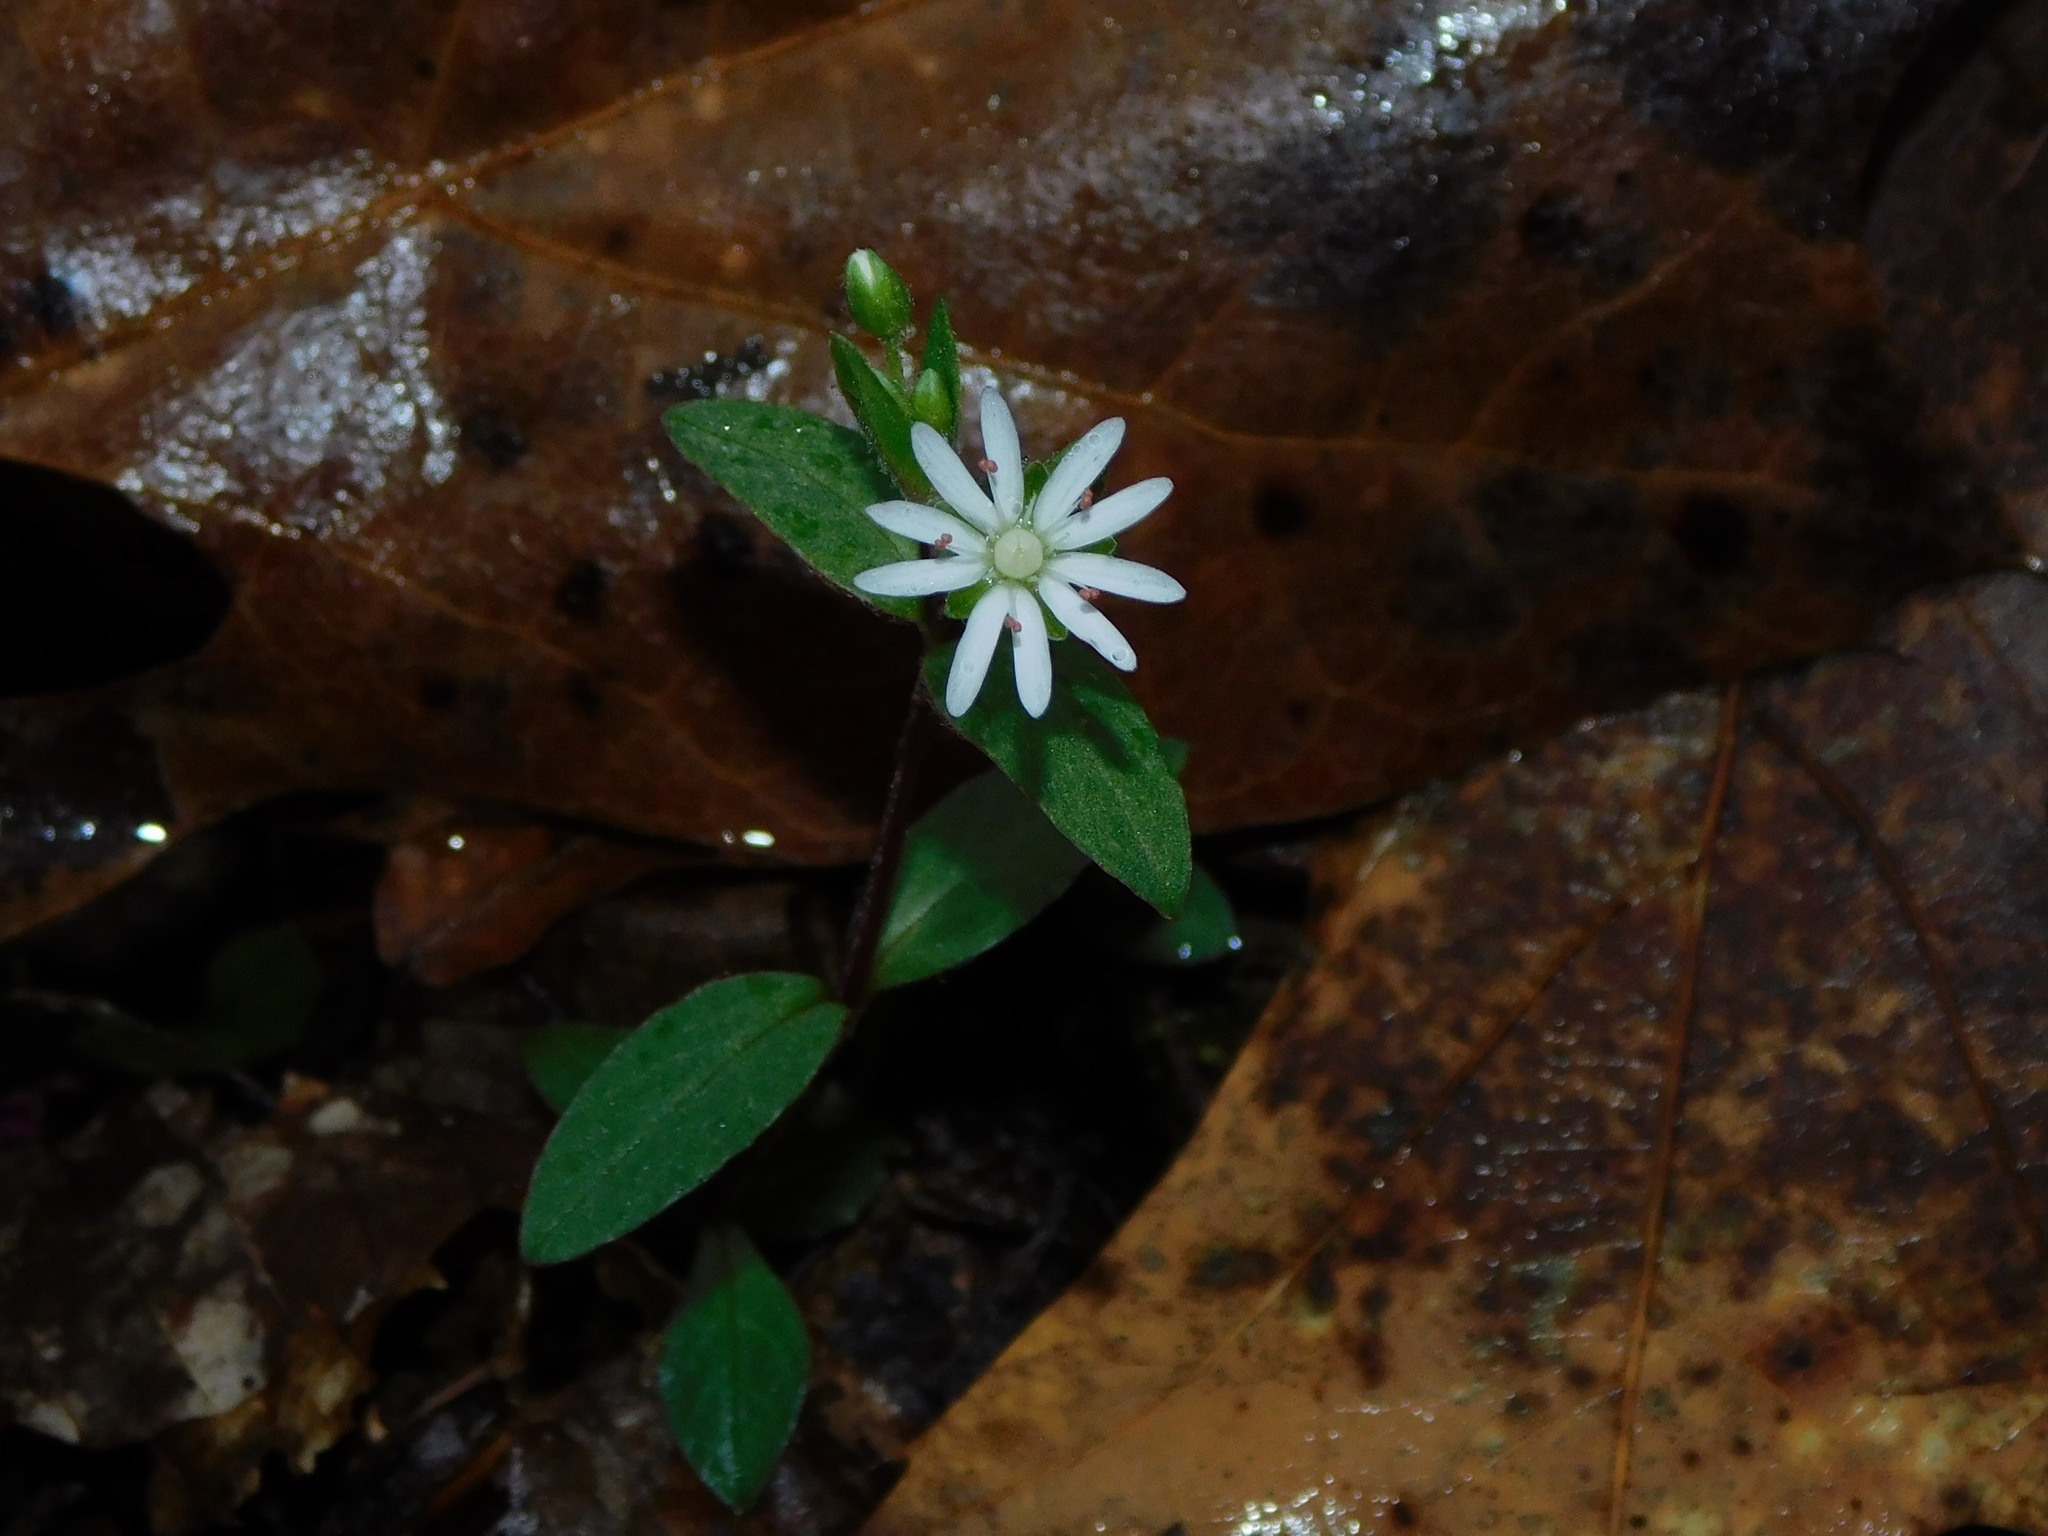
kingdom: Plantae
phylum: Tracheophyta
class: Magnoliopsida
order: Caryophyllales
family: Caryophyllaceae
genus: Stellaria
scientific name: Stellaria pubera
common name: Star chickweed
